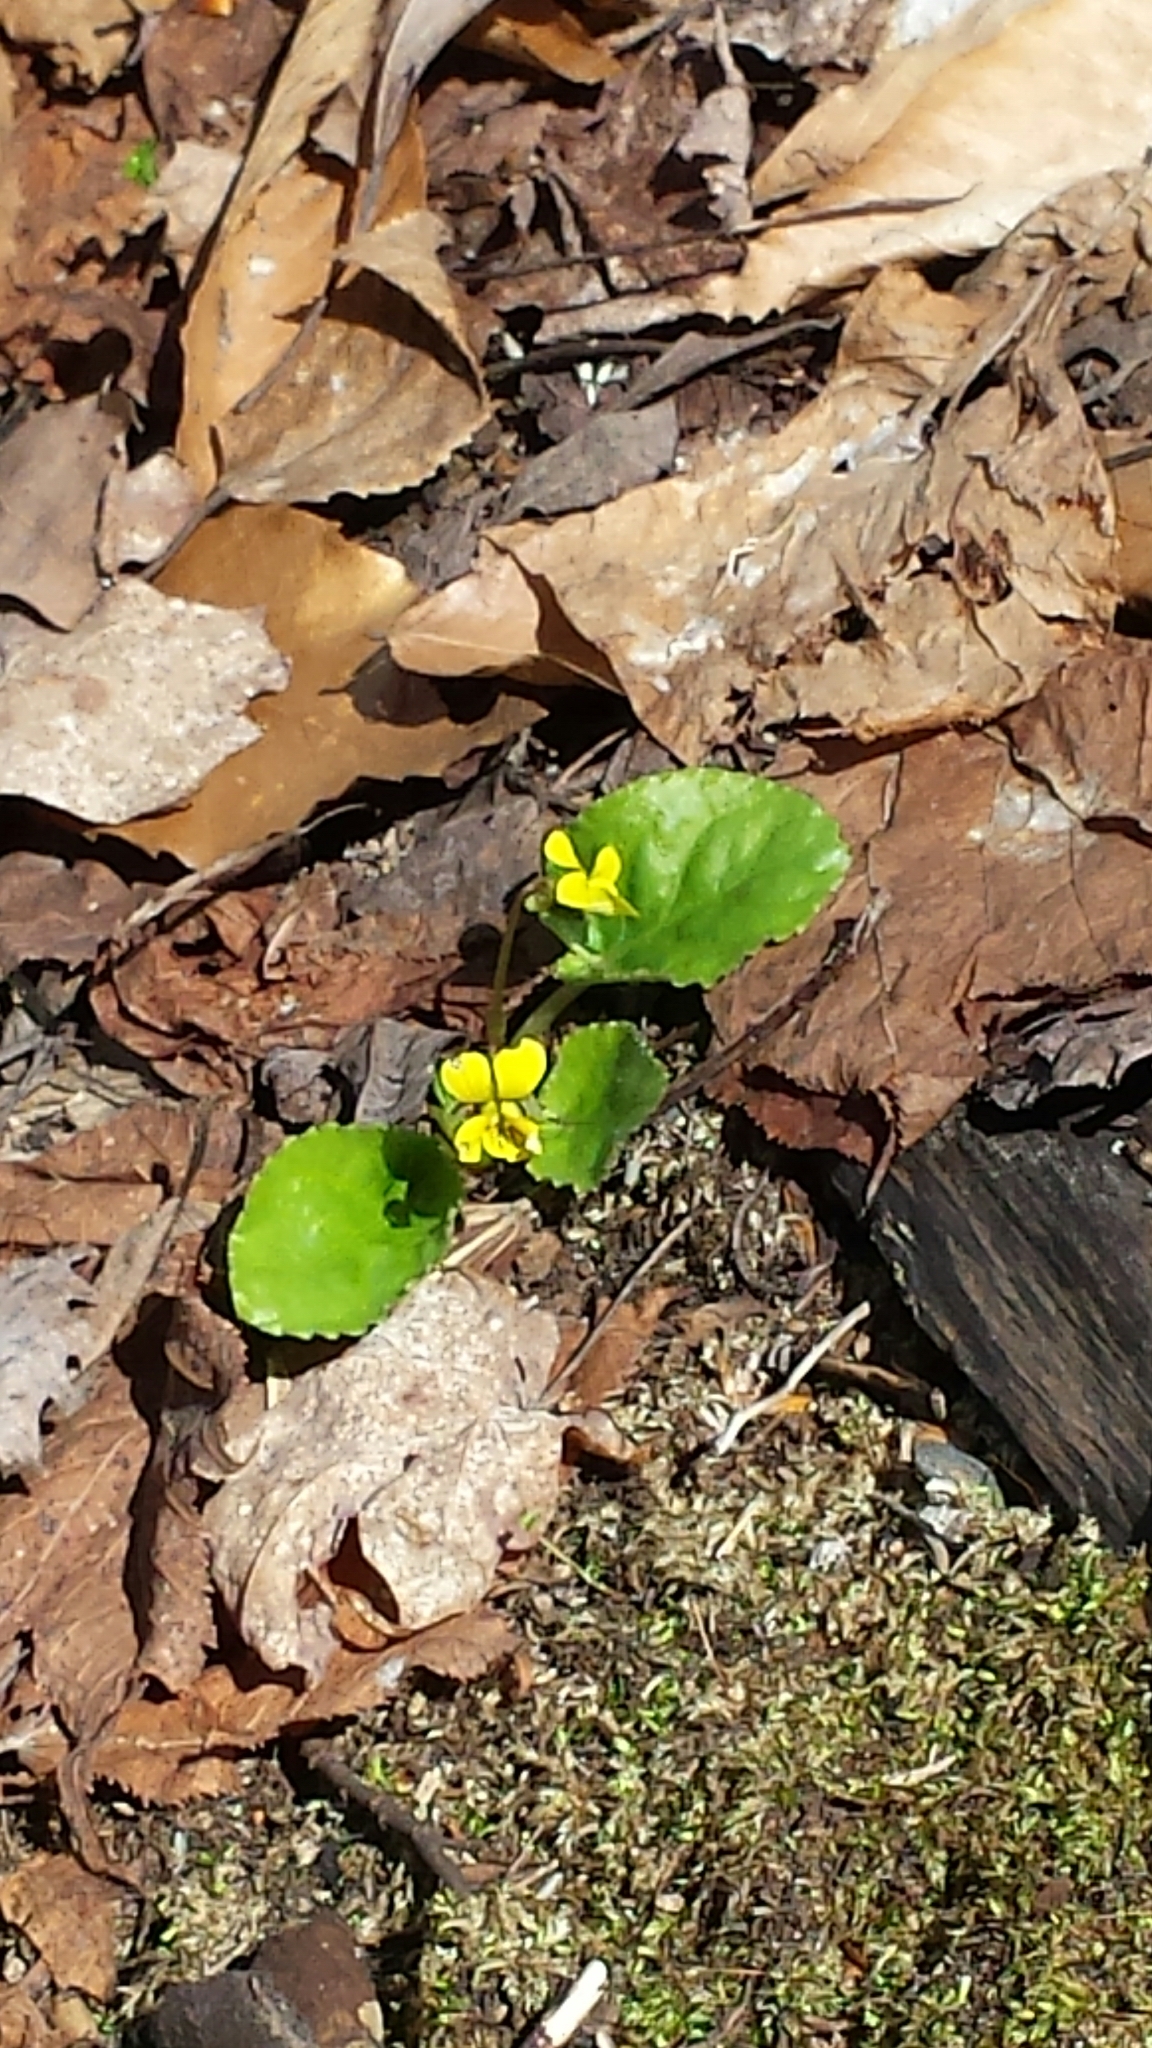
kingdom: Plantae
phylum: Tracheophyta
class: Magnoliopsida
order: Malpighiales
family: Violaceae
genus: Viola
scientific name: Viola rotundifolia
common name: Early yellow violet
